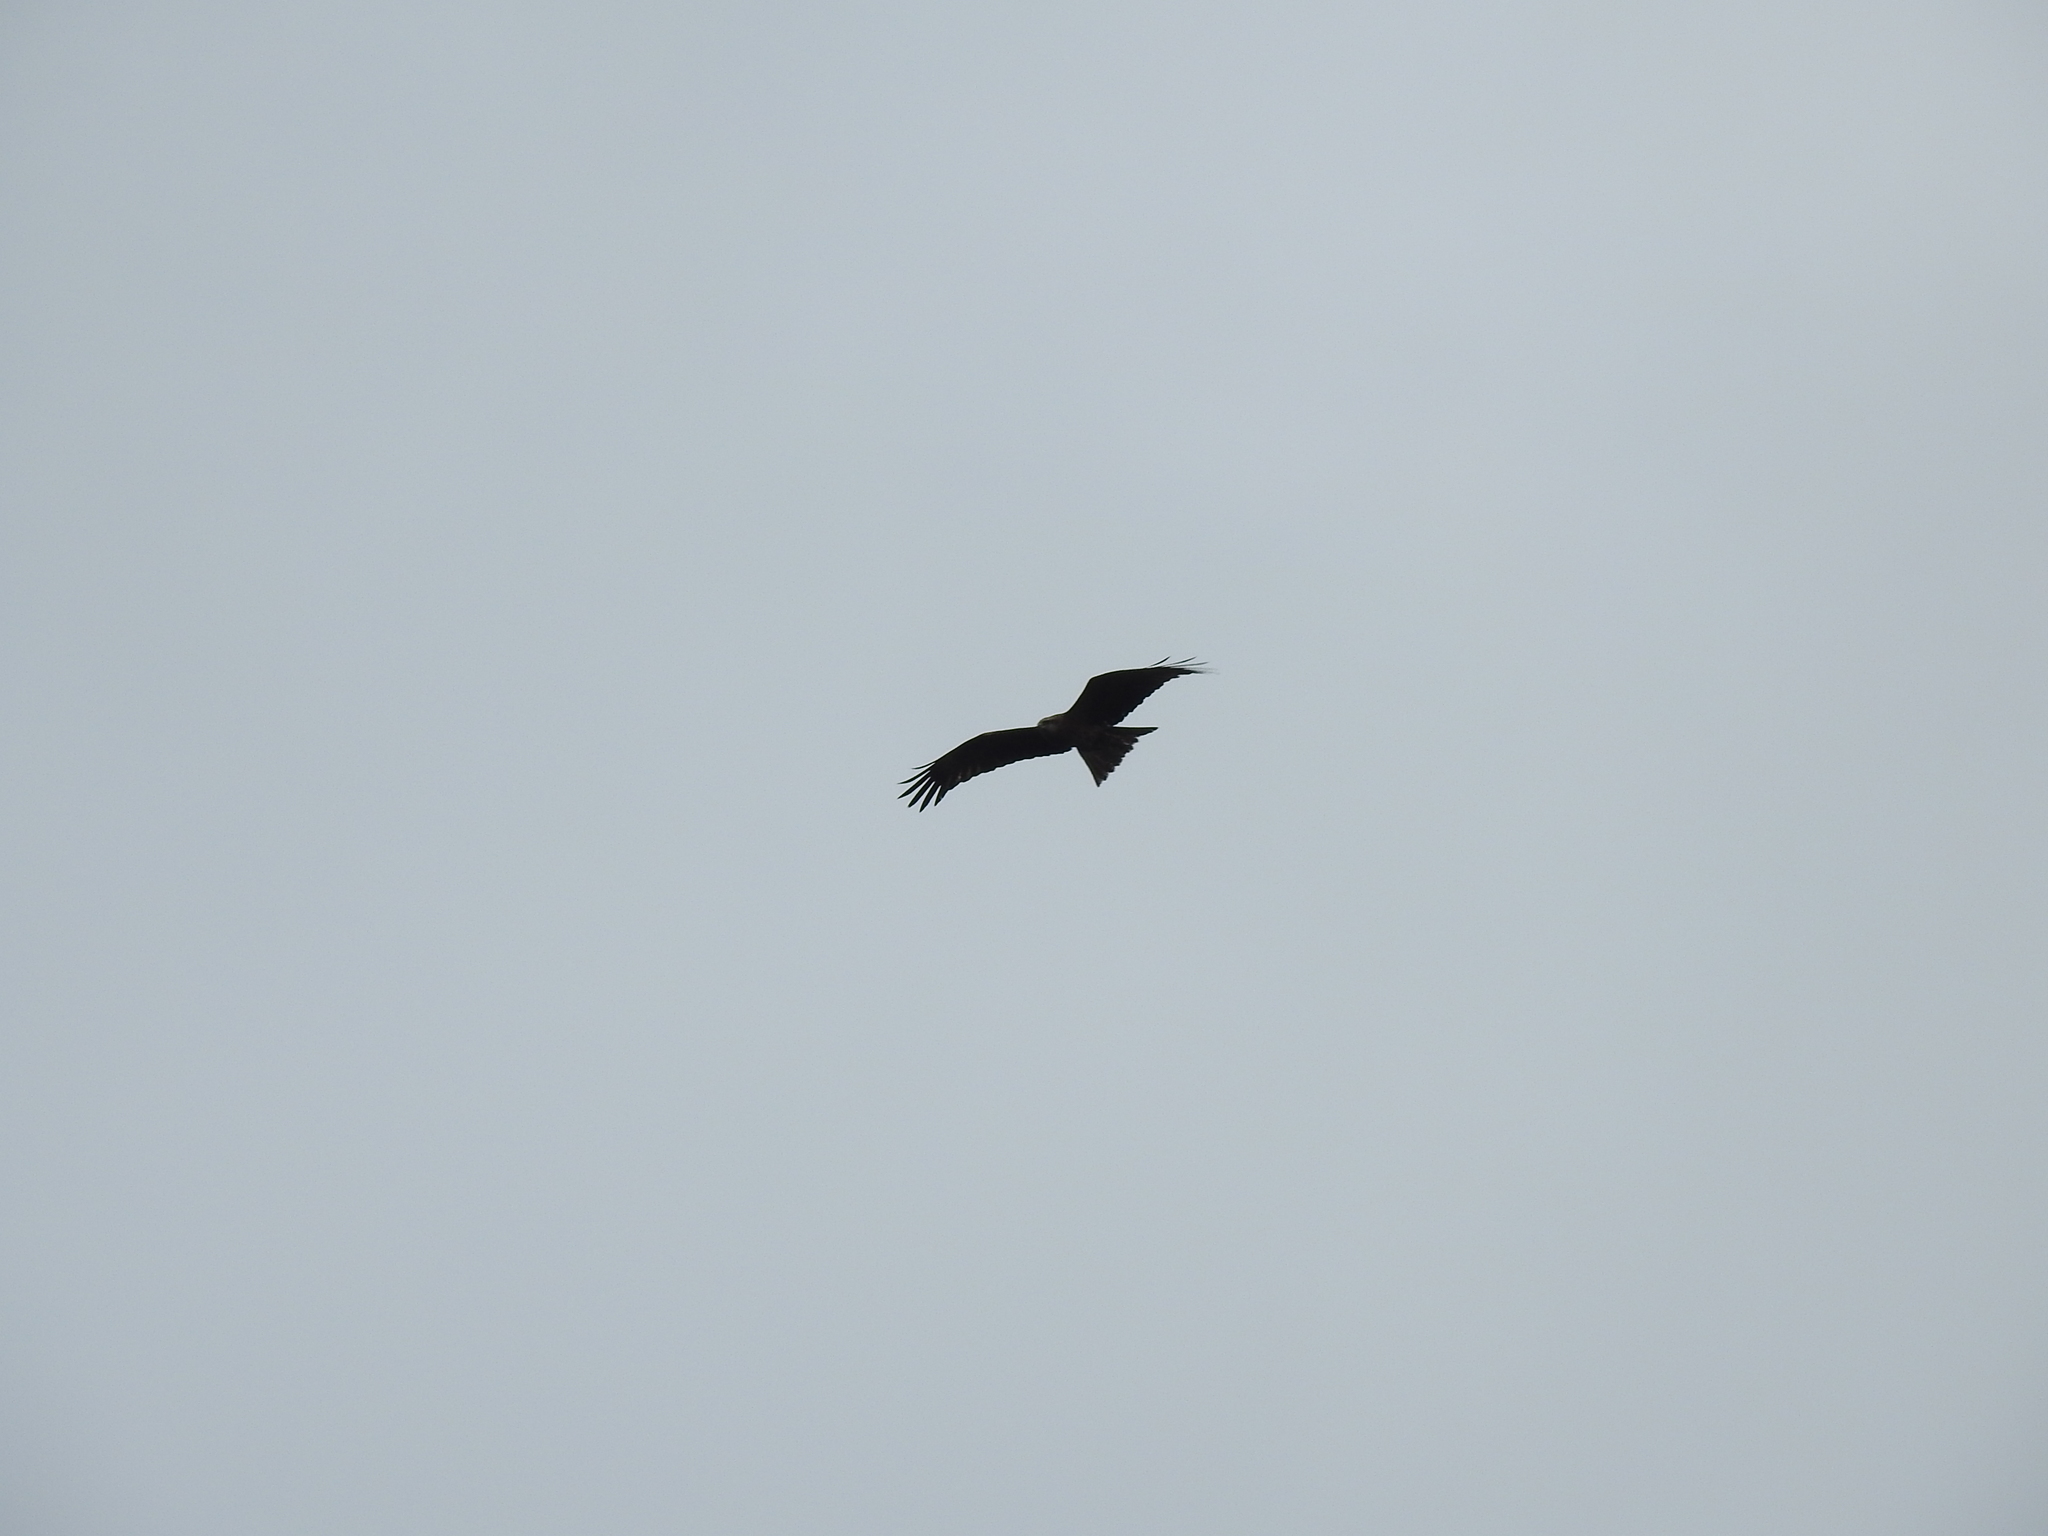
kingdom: Animalia
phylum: Chordata
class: Aves
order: Accipitriformes
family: Accipitridae
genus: Milvus
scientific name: Milvus migrans
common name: Black kite
